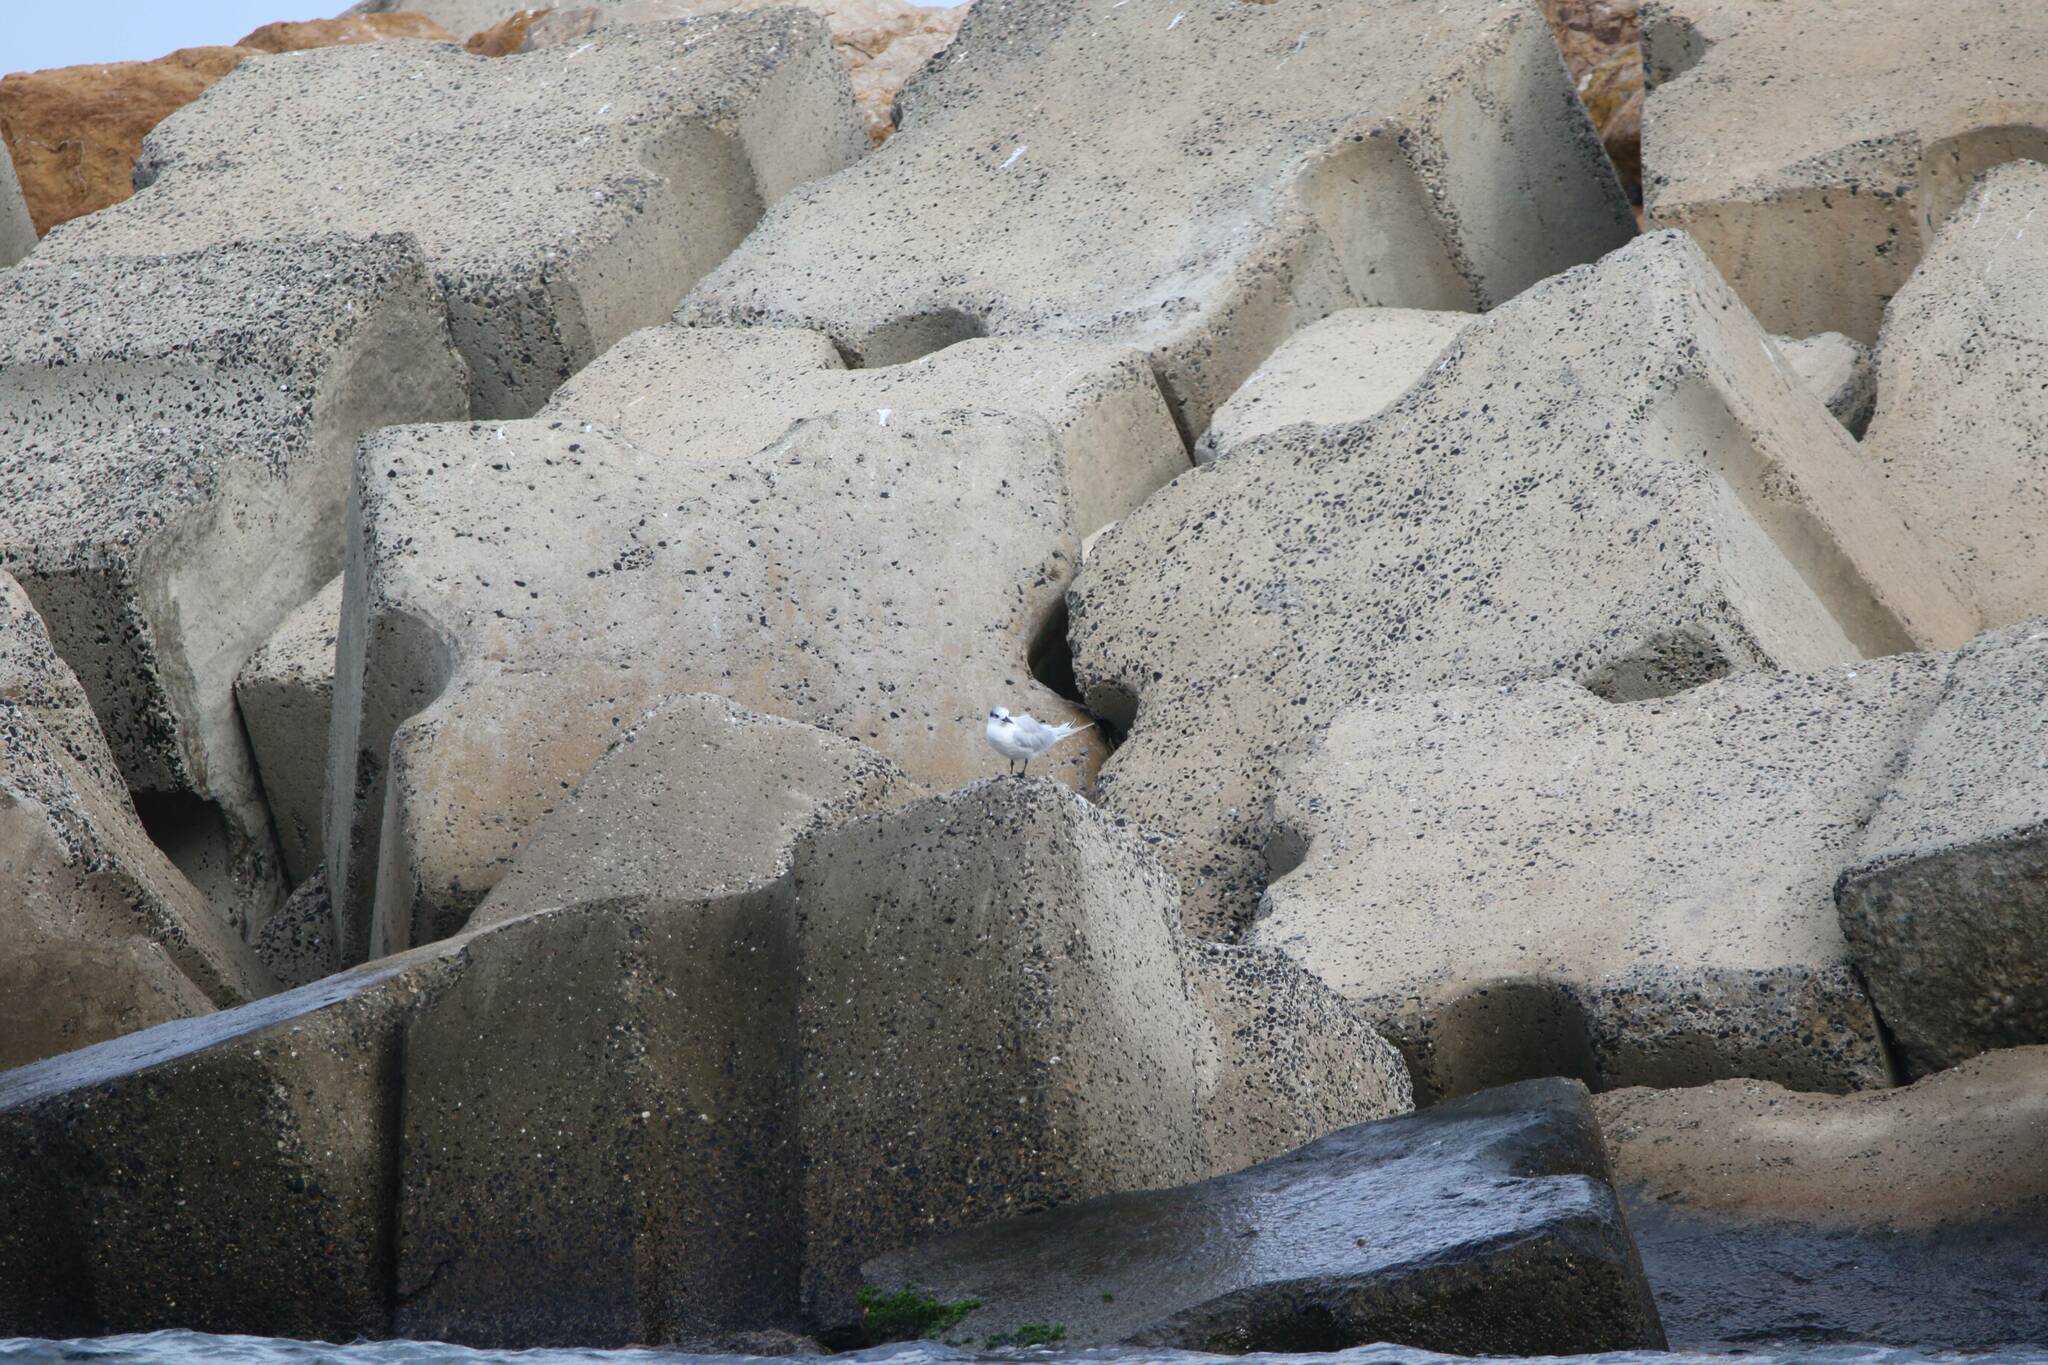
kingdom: Animalia
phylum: Chordata
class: Aves
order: Charadriiformes
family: Laridae
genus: Thalasseus
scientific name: Thalasseus sandvicensis
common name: Sandwich tern
